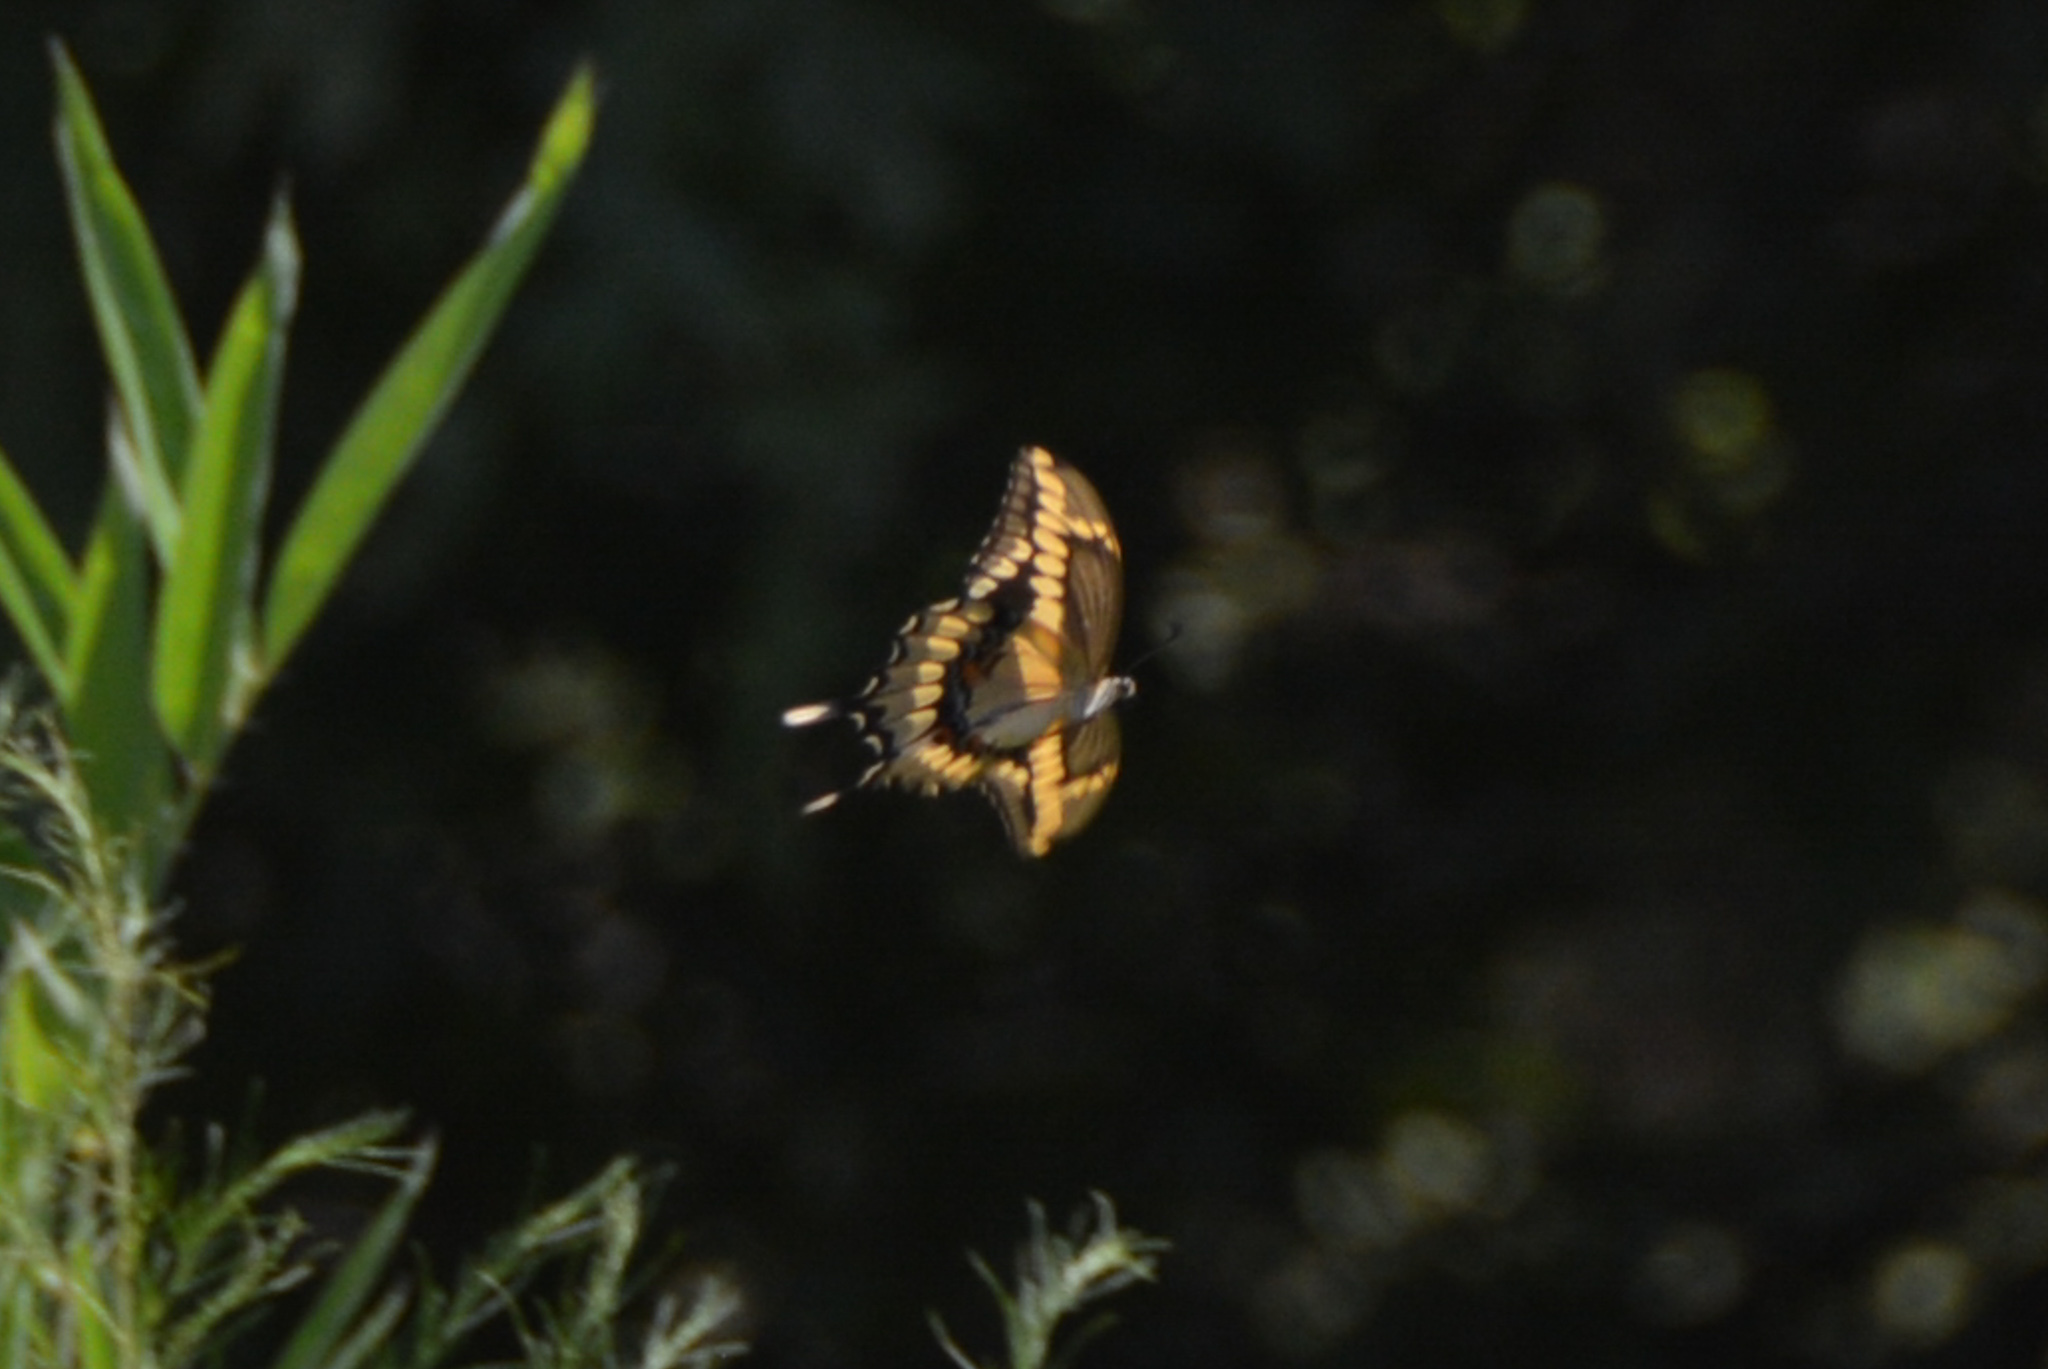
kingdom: Animalia
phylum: Arthropoda
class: Insecta
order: Lepidoptera
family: Papilionidae
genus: Papilio
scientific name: Papilio cresphontes
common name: Giant swallowtail
